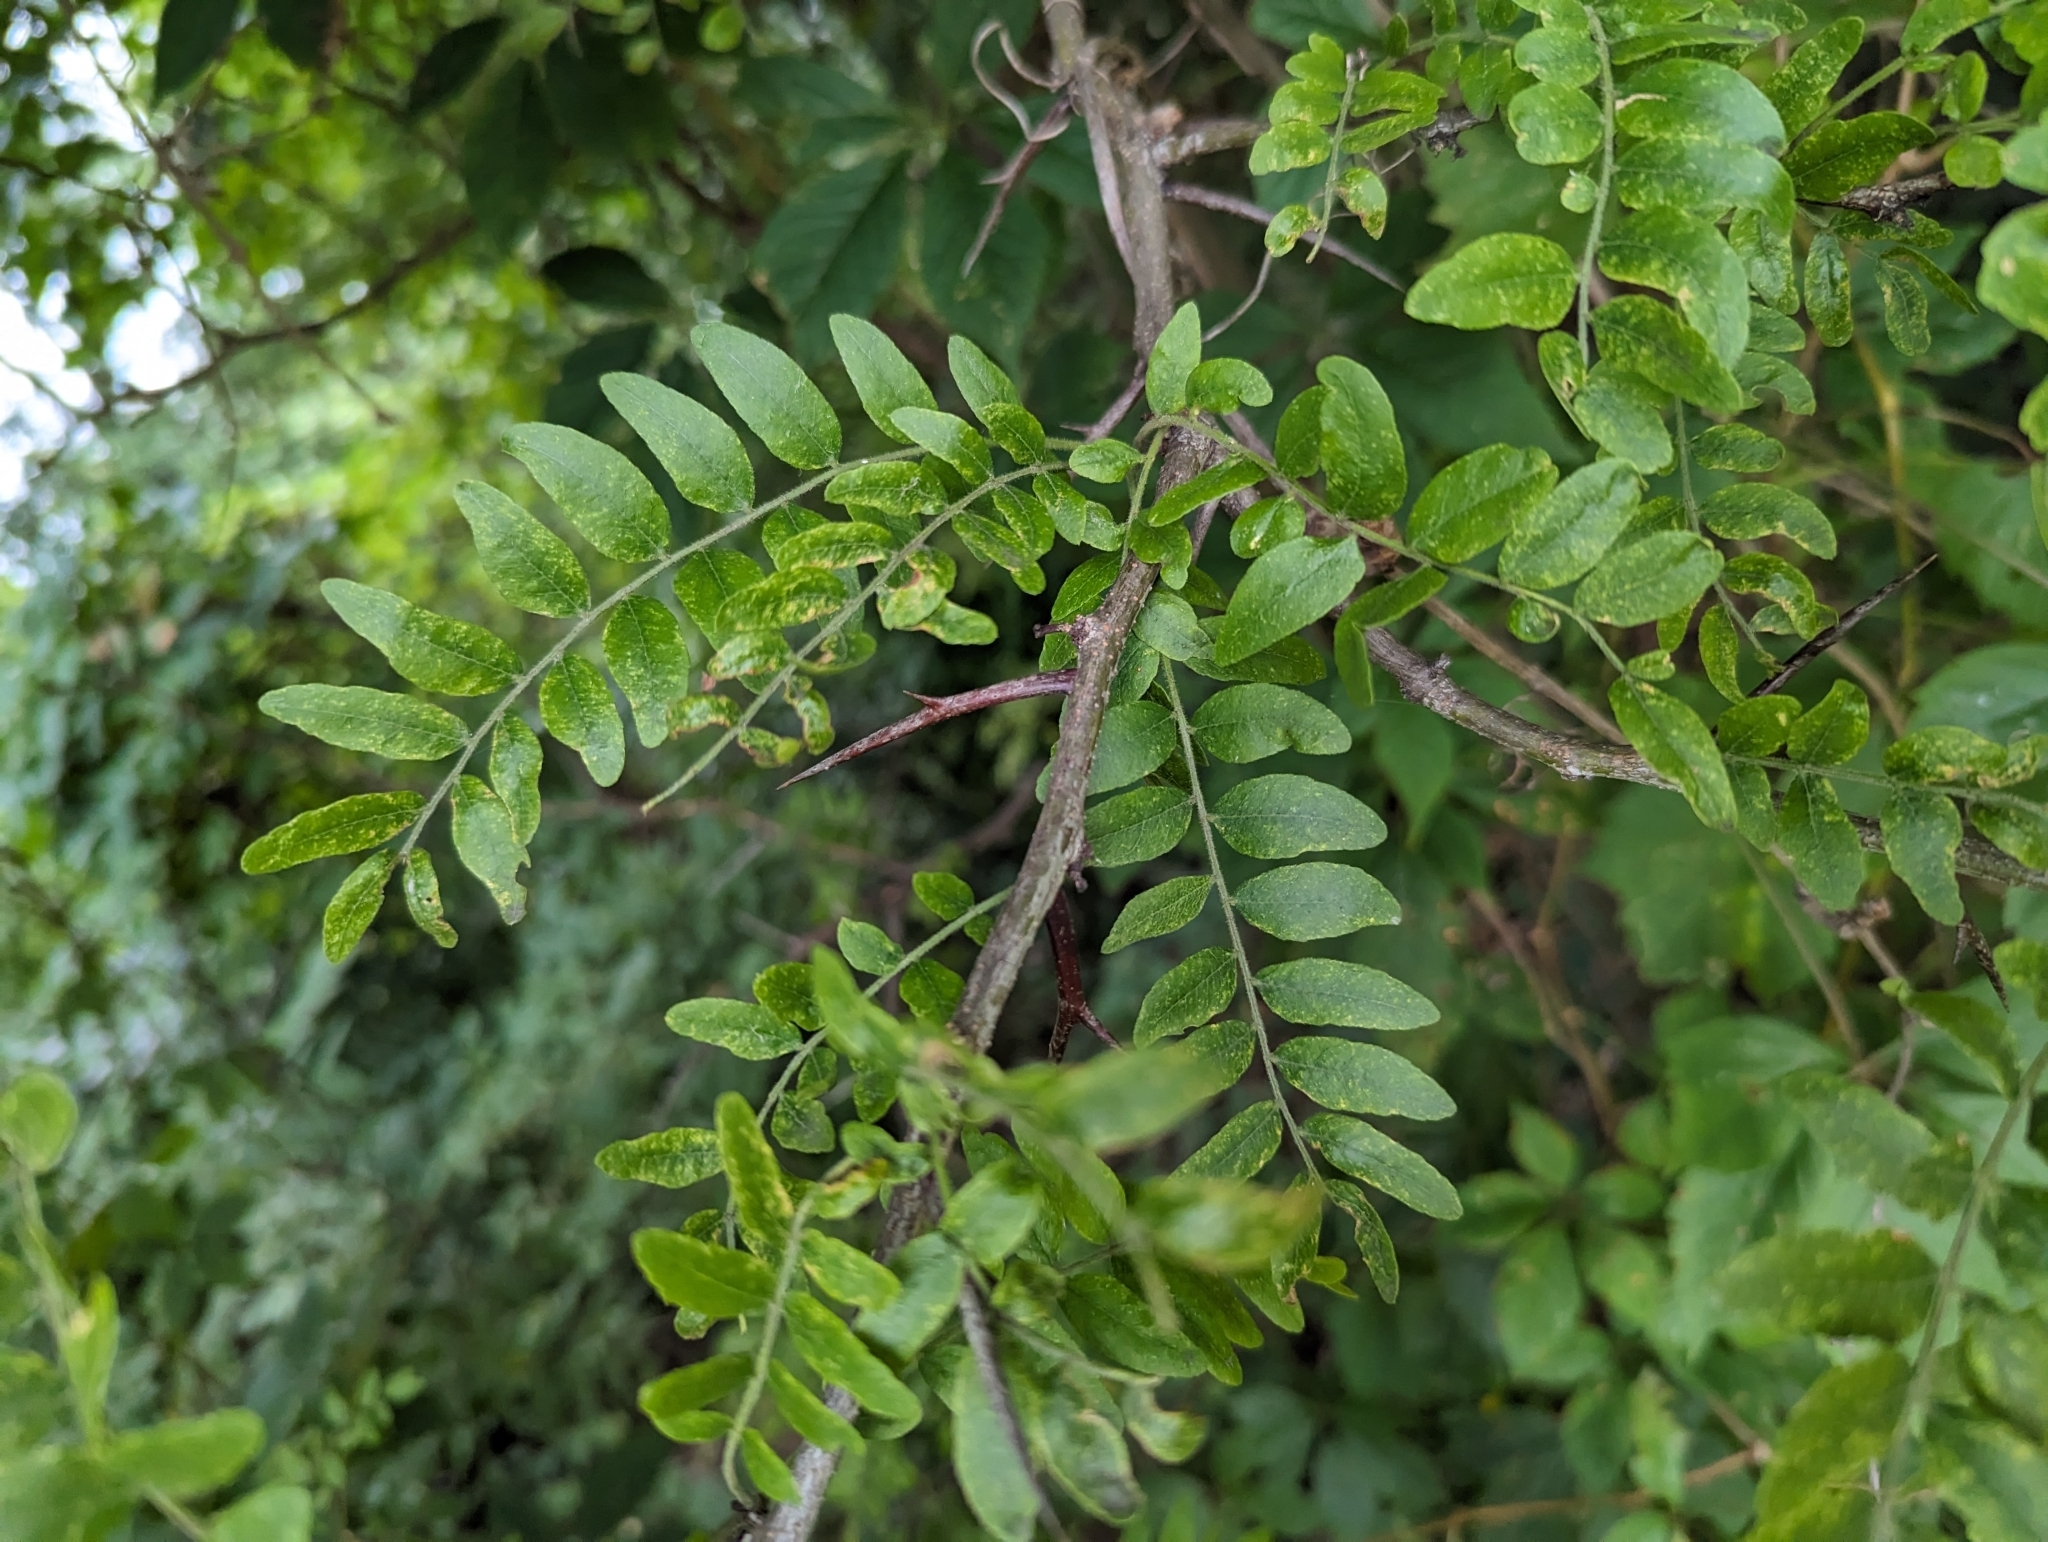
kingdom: Plantae
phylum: Tracheophyta
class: Magnoliopsida
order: Fabales
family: Fabaceae
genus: Gleditsia
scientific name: Gleditsia triacanthos
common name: Common honeylocust
